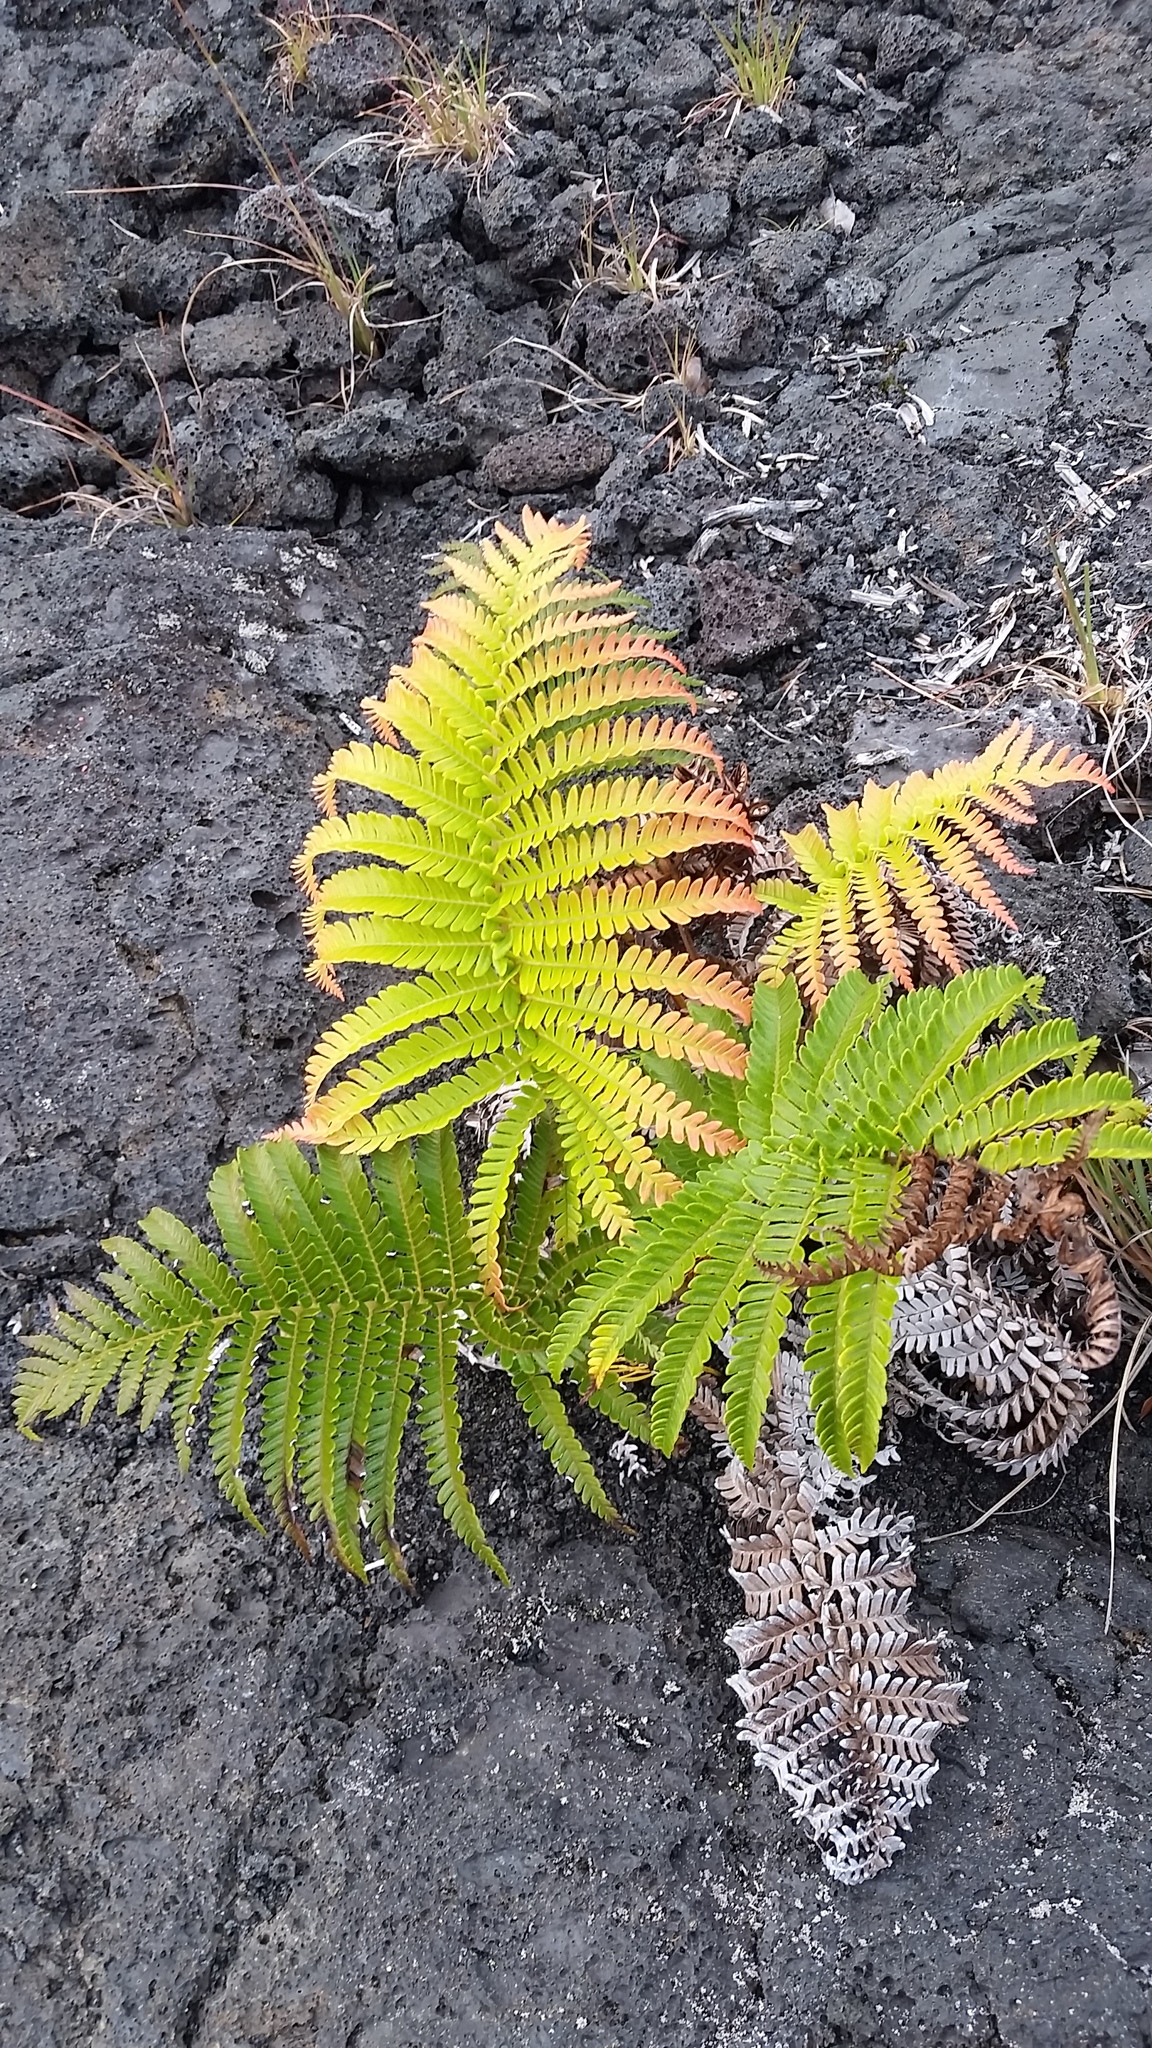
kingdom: Plantae
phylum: Tracheophyta
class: Polypodiopsida
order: Polypodiales
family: Blechnaceae
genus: Sadleria
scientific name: Sadleria cyatheoides
